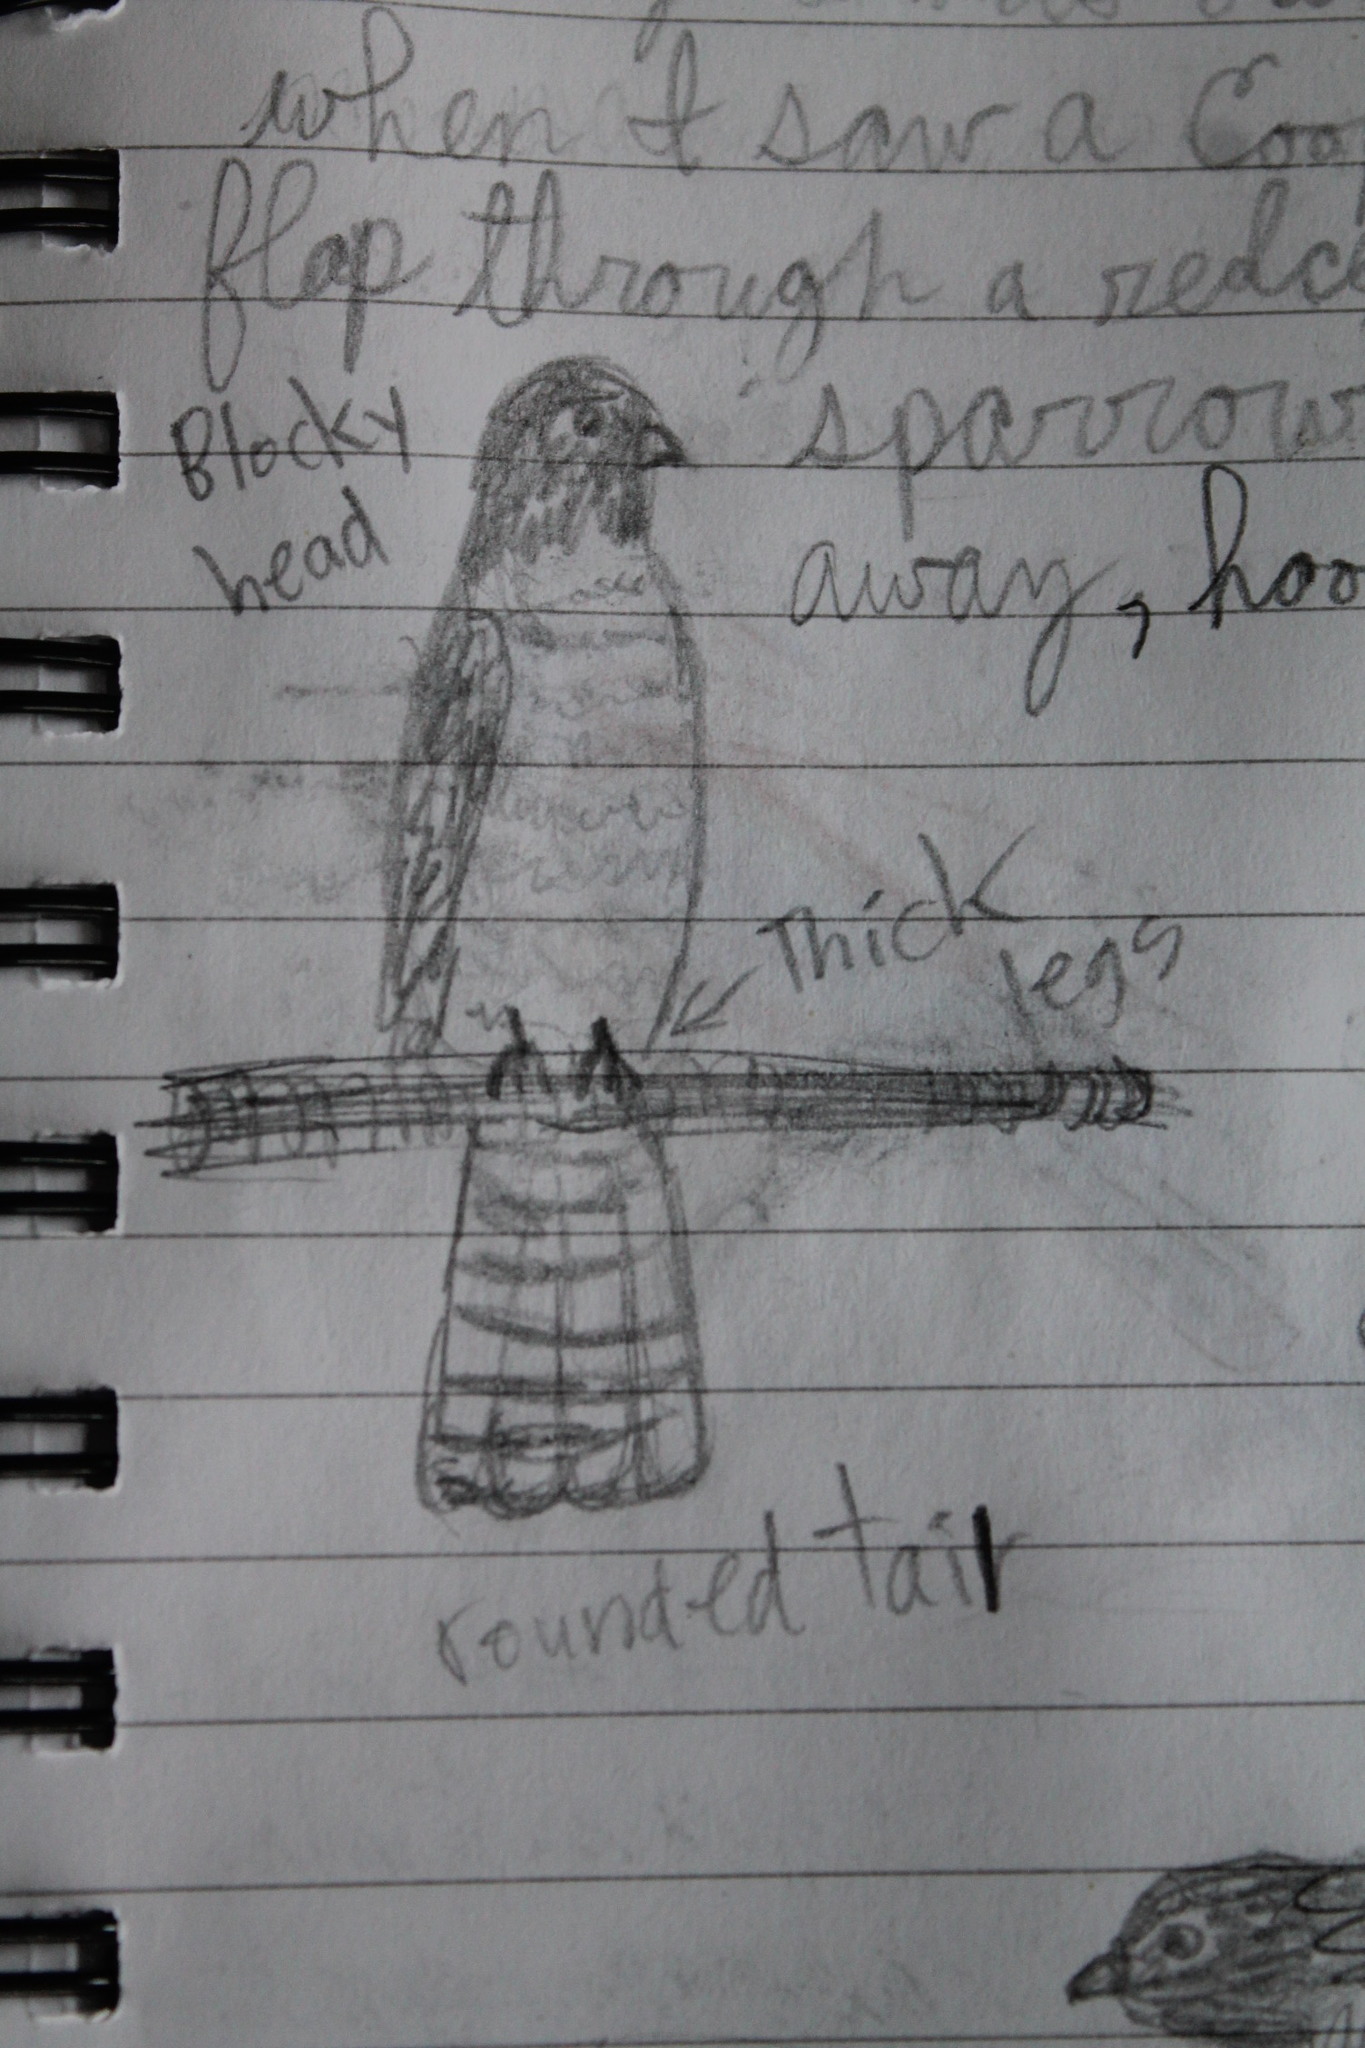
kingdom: Animalia
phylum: Chordata
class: Aves
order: Accipitriformes
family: Accipitridae
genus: Accipiter
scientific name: Accipiter cooperii
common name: Cooper's hawk
